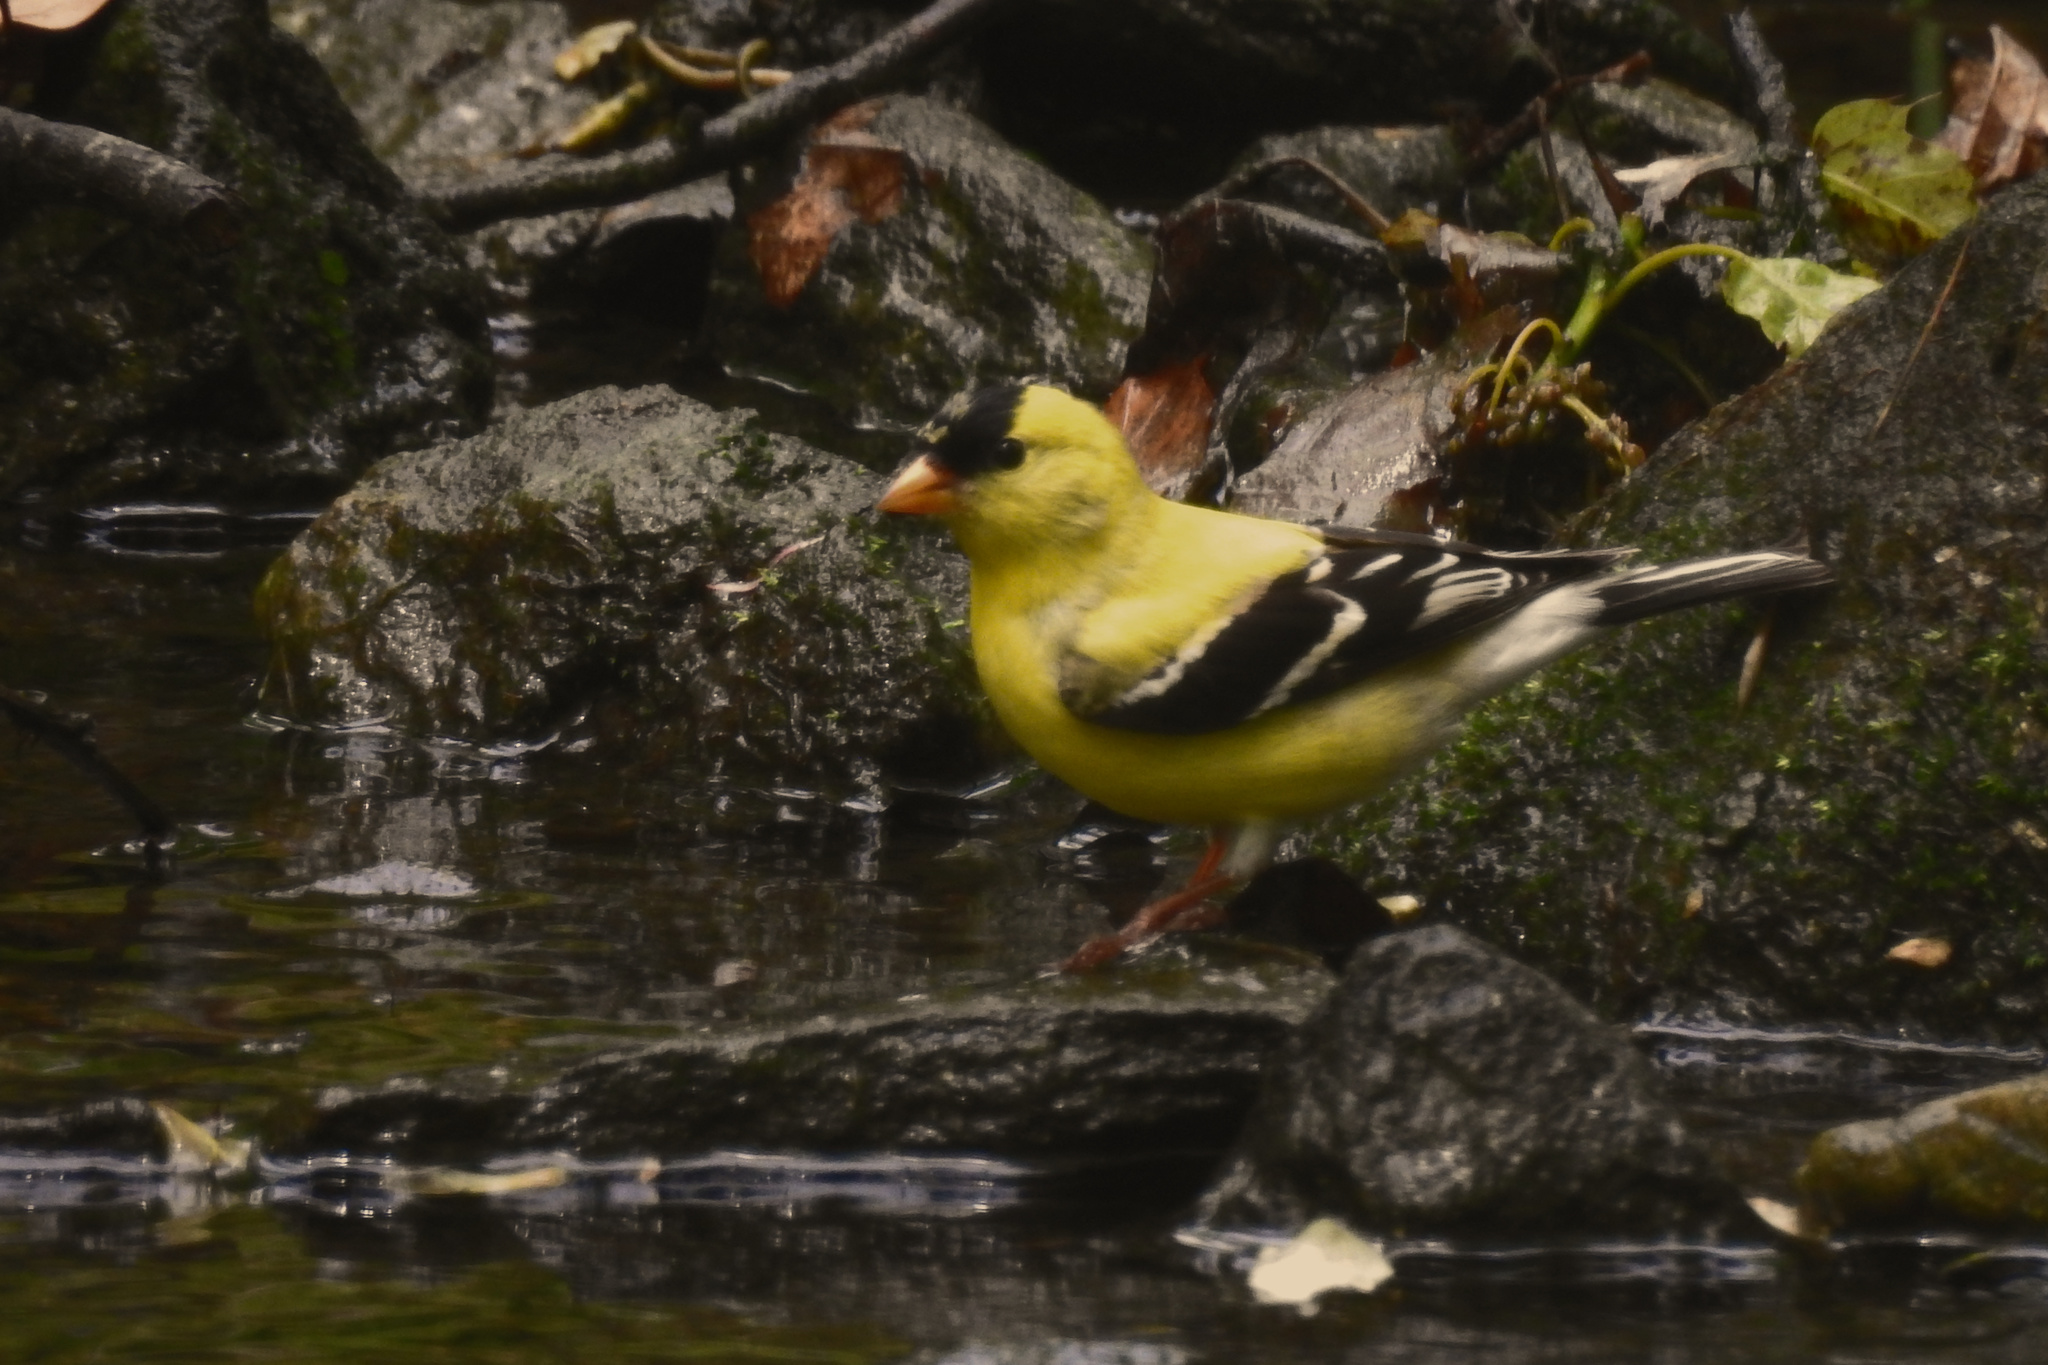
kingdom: Animalia
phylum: Chordata
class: Aves
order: Passeriformes
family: Fringillidae
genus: Spinus
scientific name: Spinus tristis
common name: American goldfinch
